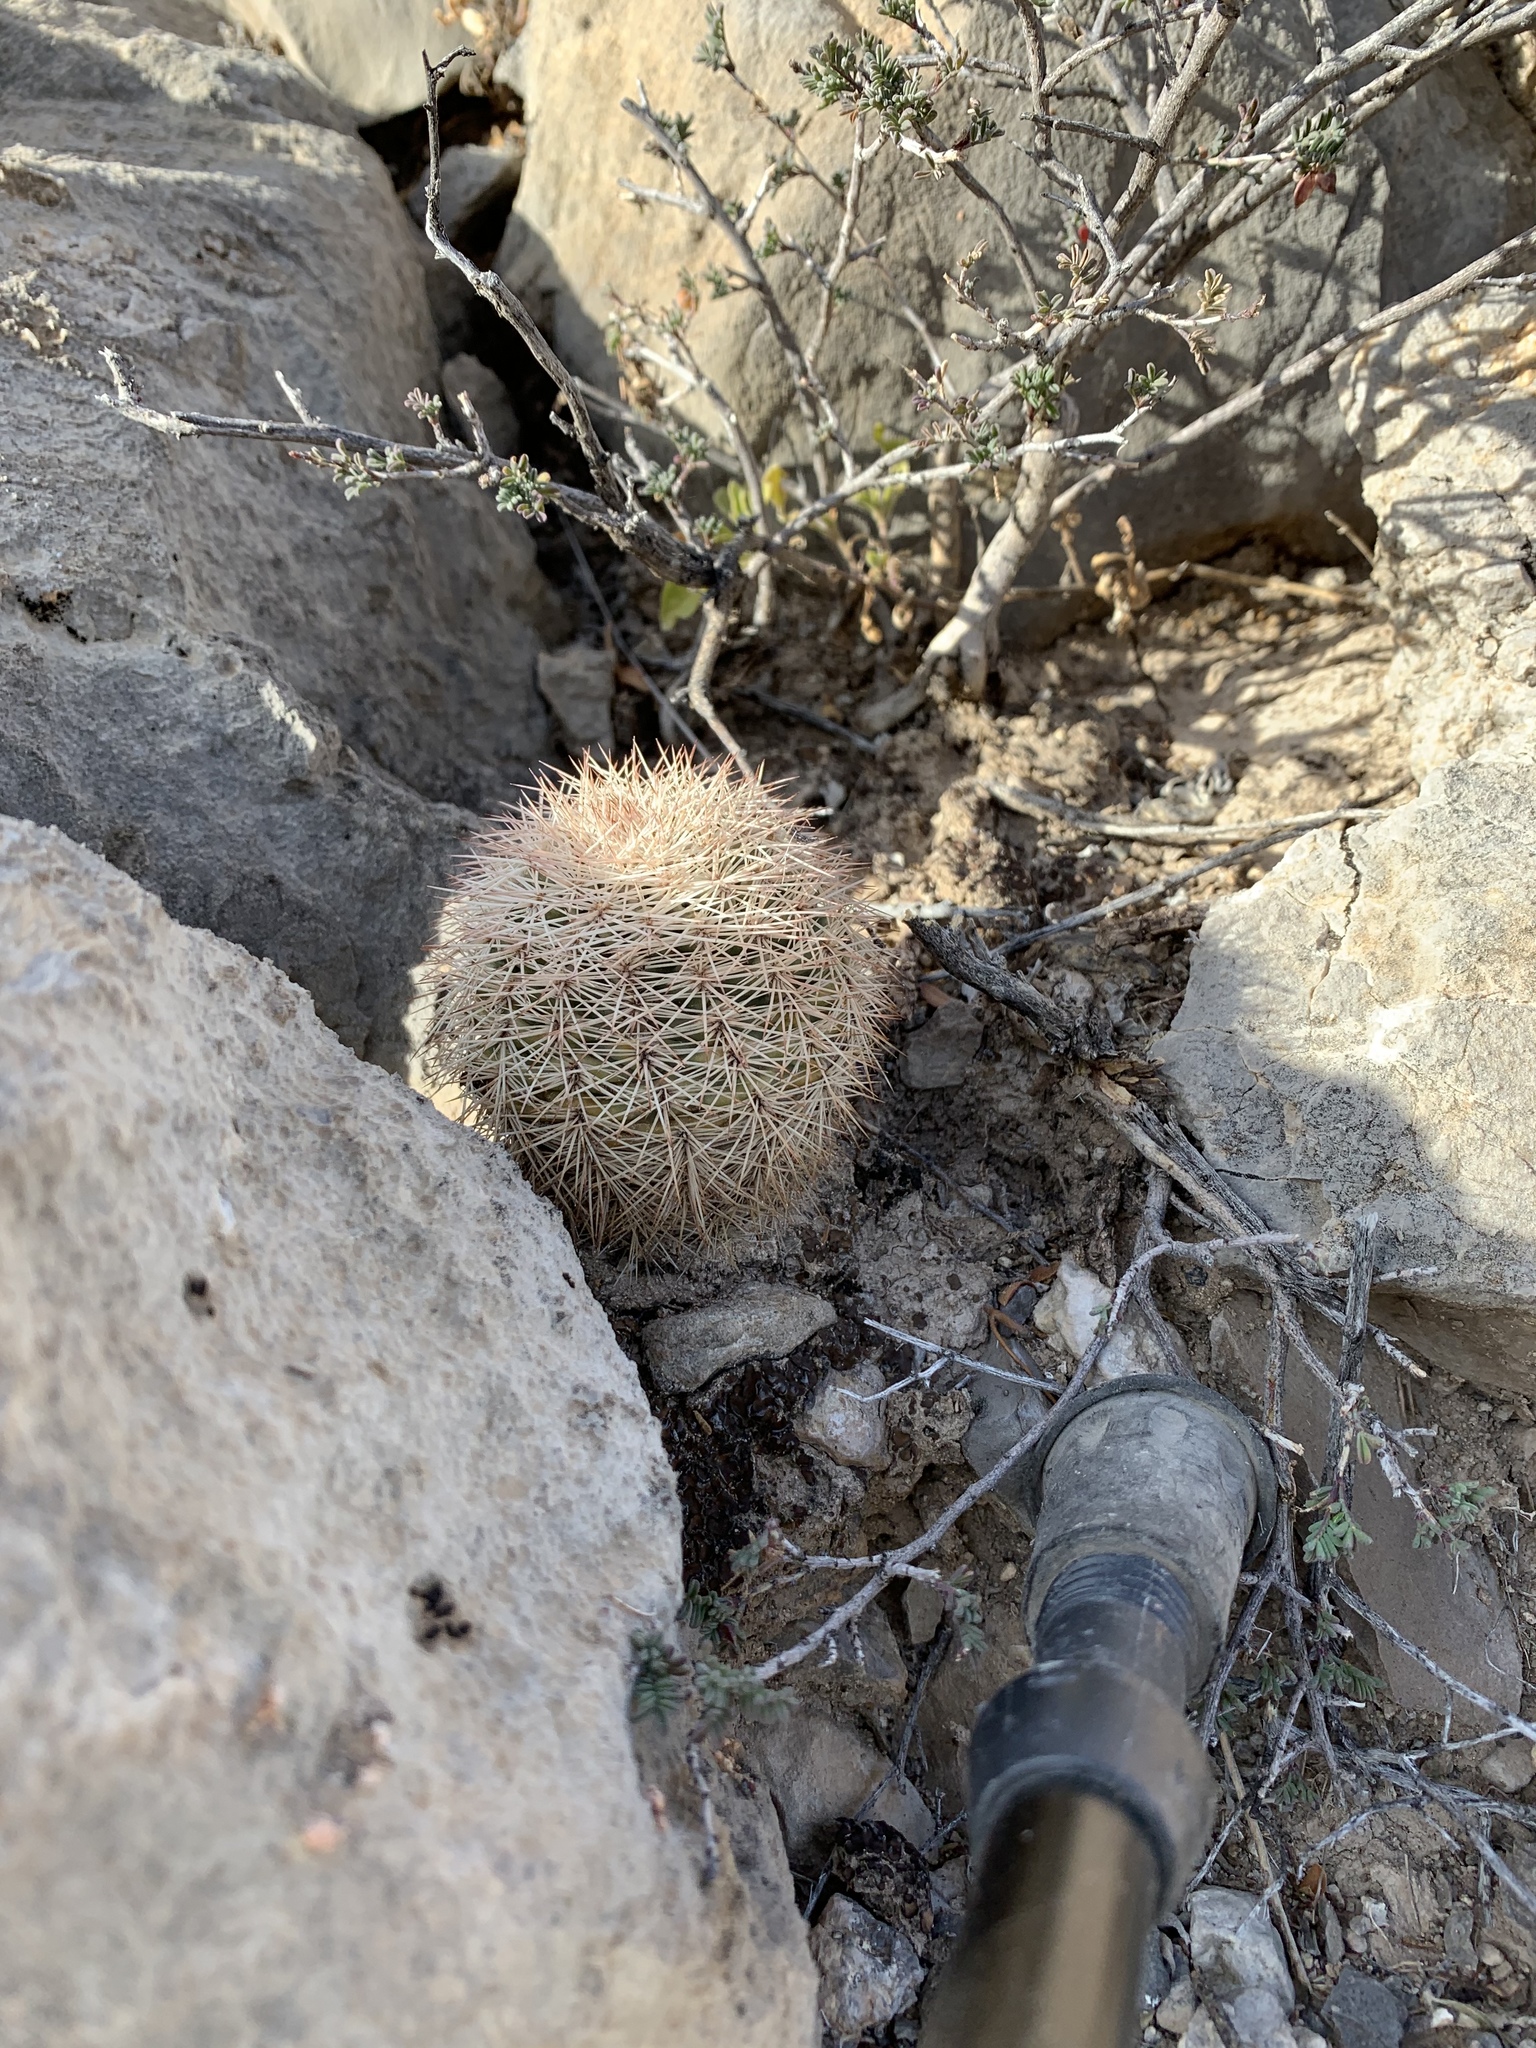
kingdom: Plantae
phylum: Tracheophyta
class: Magnoliopsida
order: Caryophyllales
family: Cactaceae
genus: Echinocereus
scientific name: Echinocereus dasyacanthus
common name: Spiny hedgehog cactus
